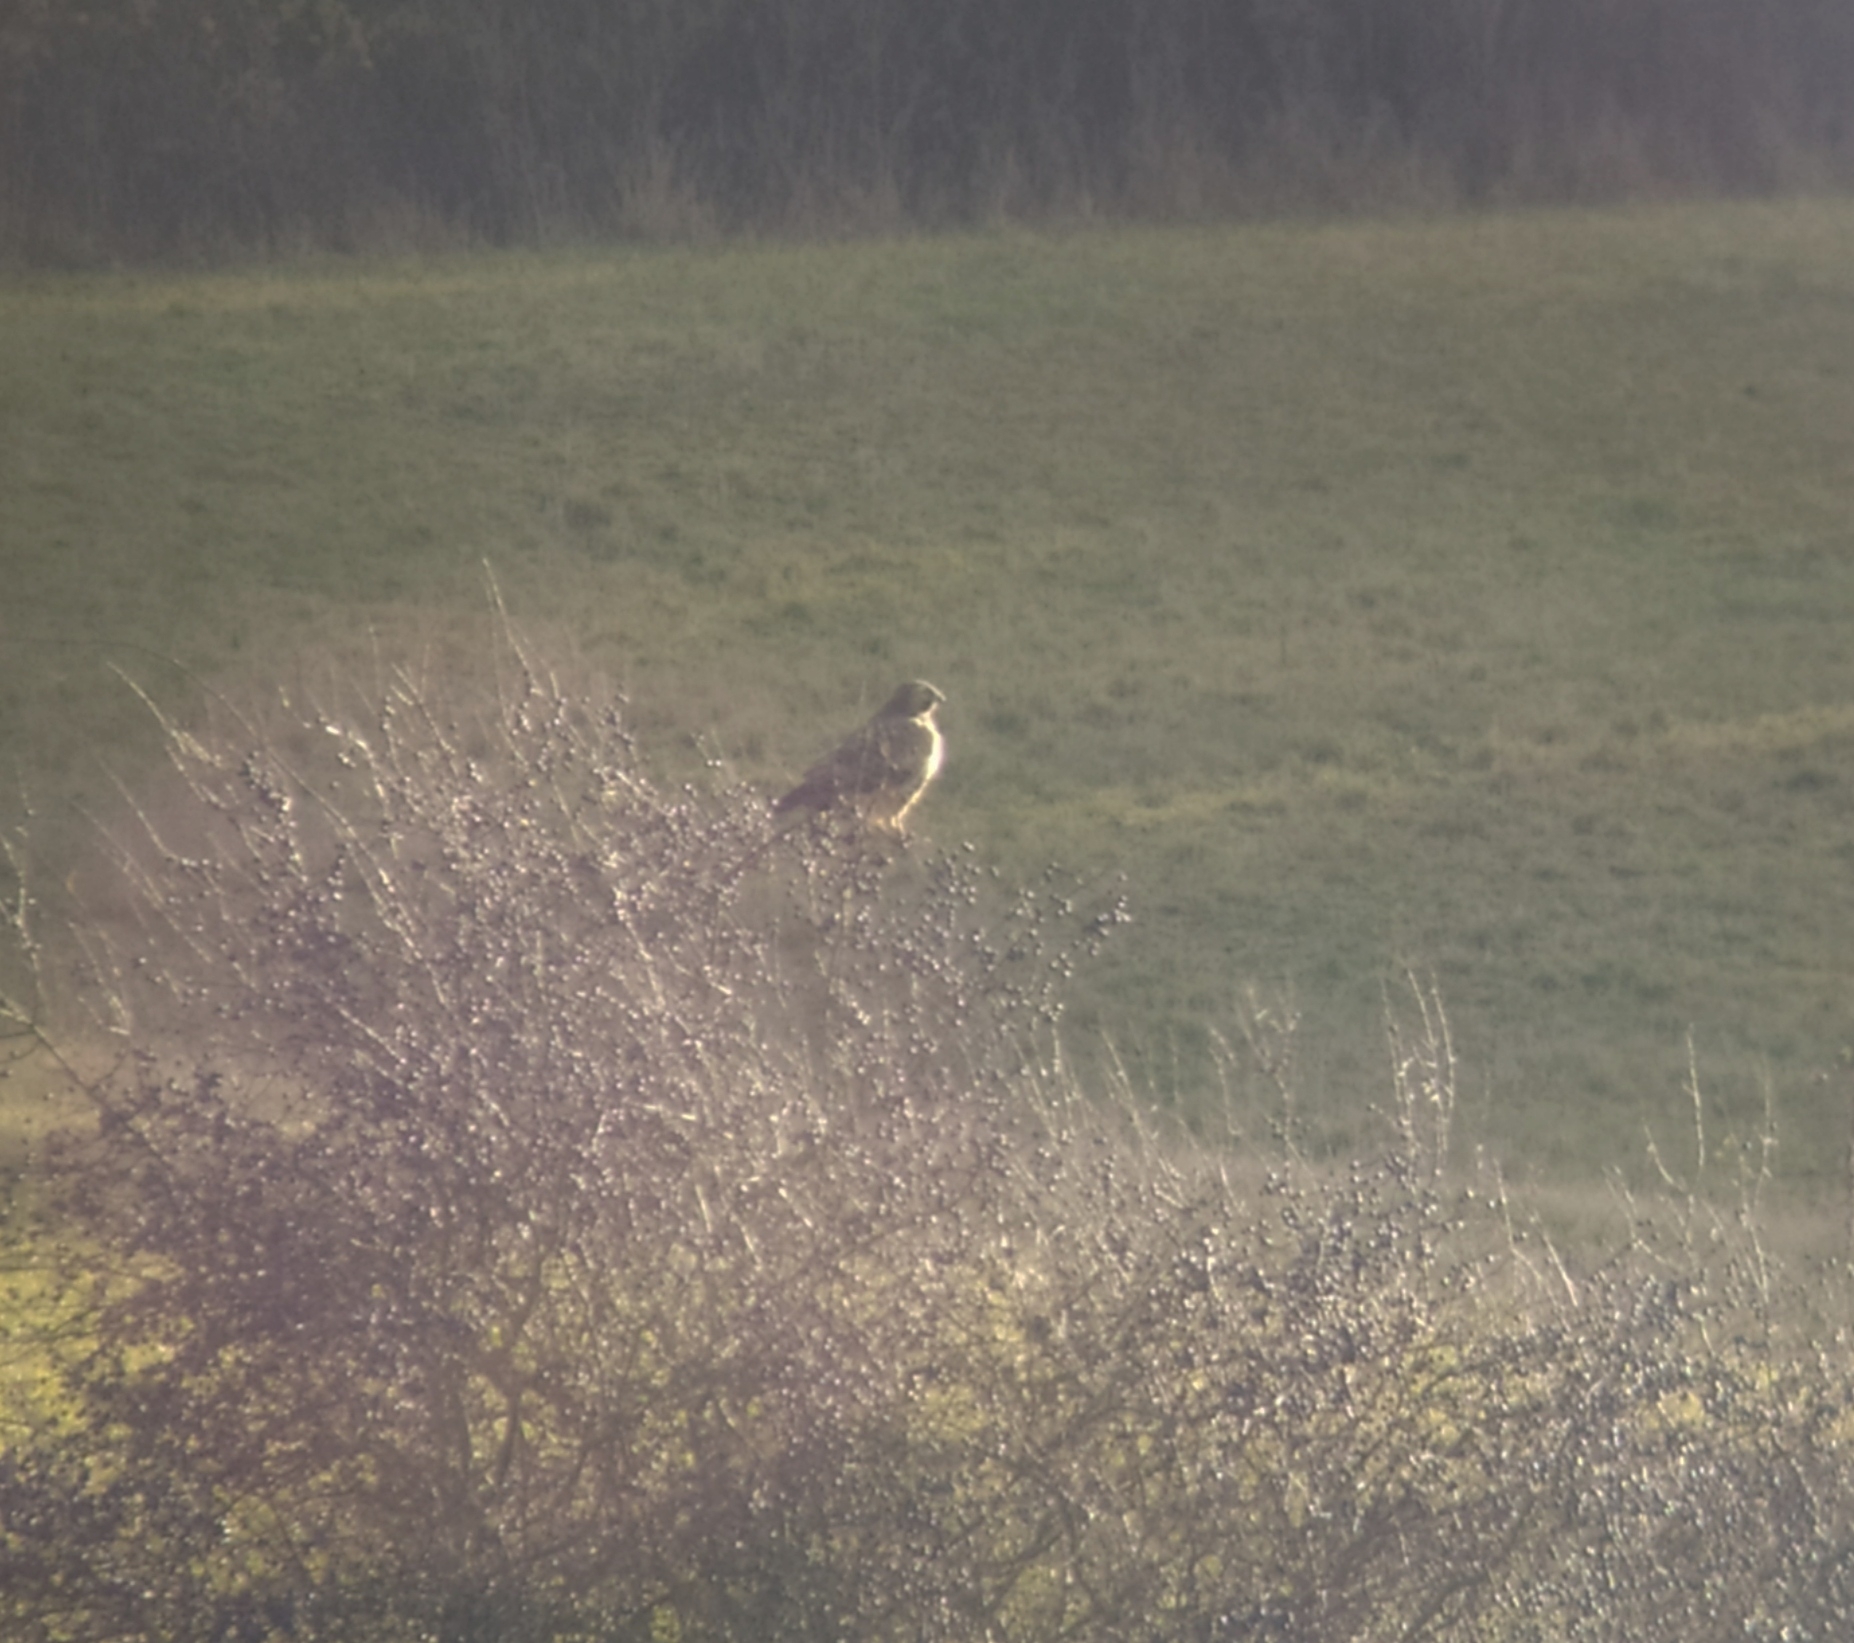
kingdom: Animalia
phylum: Chordata
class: Aves
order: Accipitriformes
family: Accipitridae
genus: Buteo
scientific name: Buteo buteo
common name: Common buzzard
